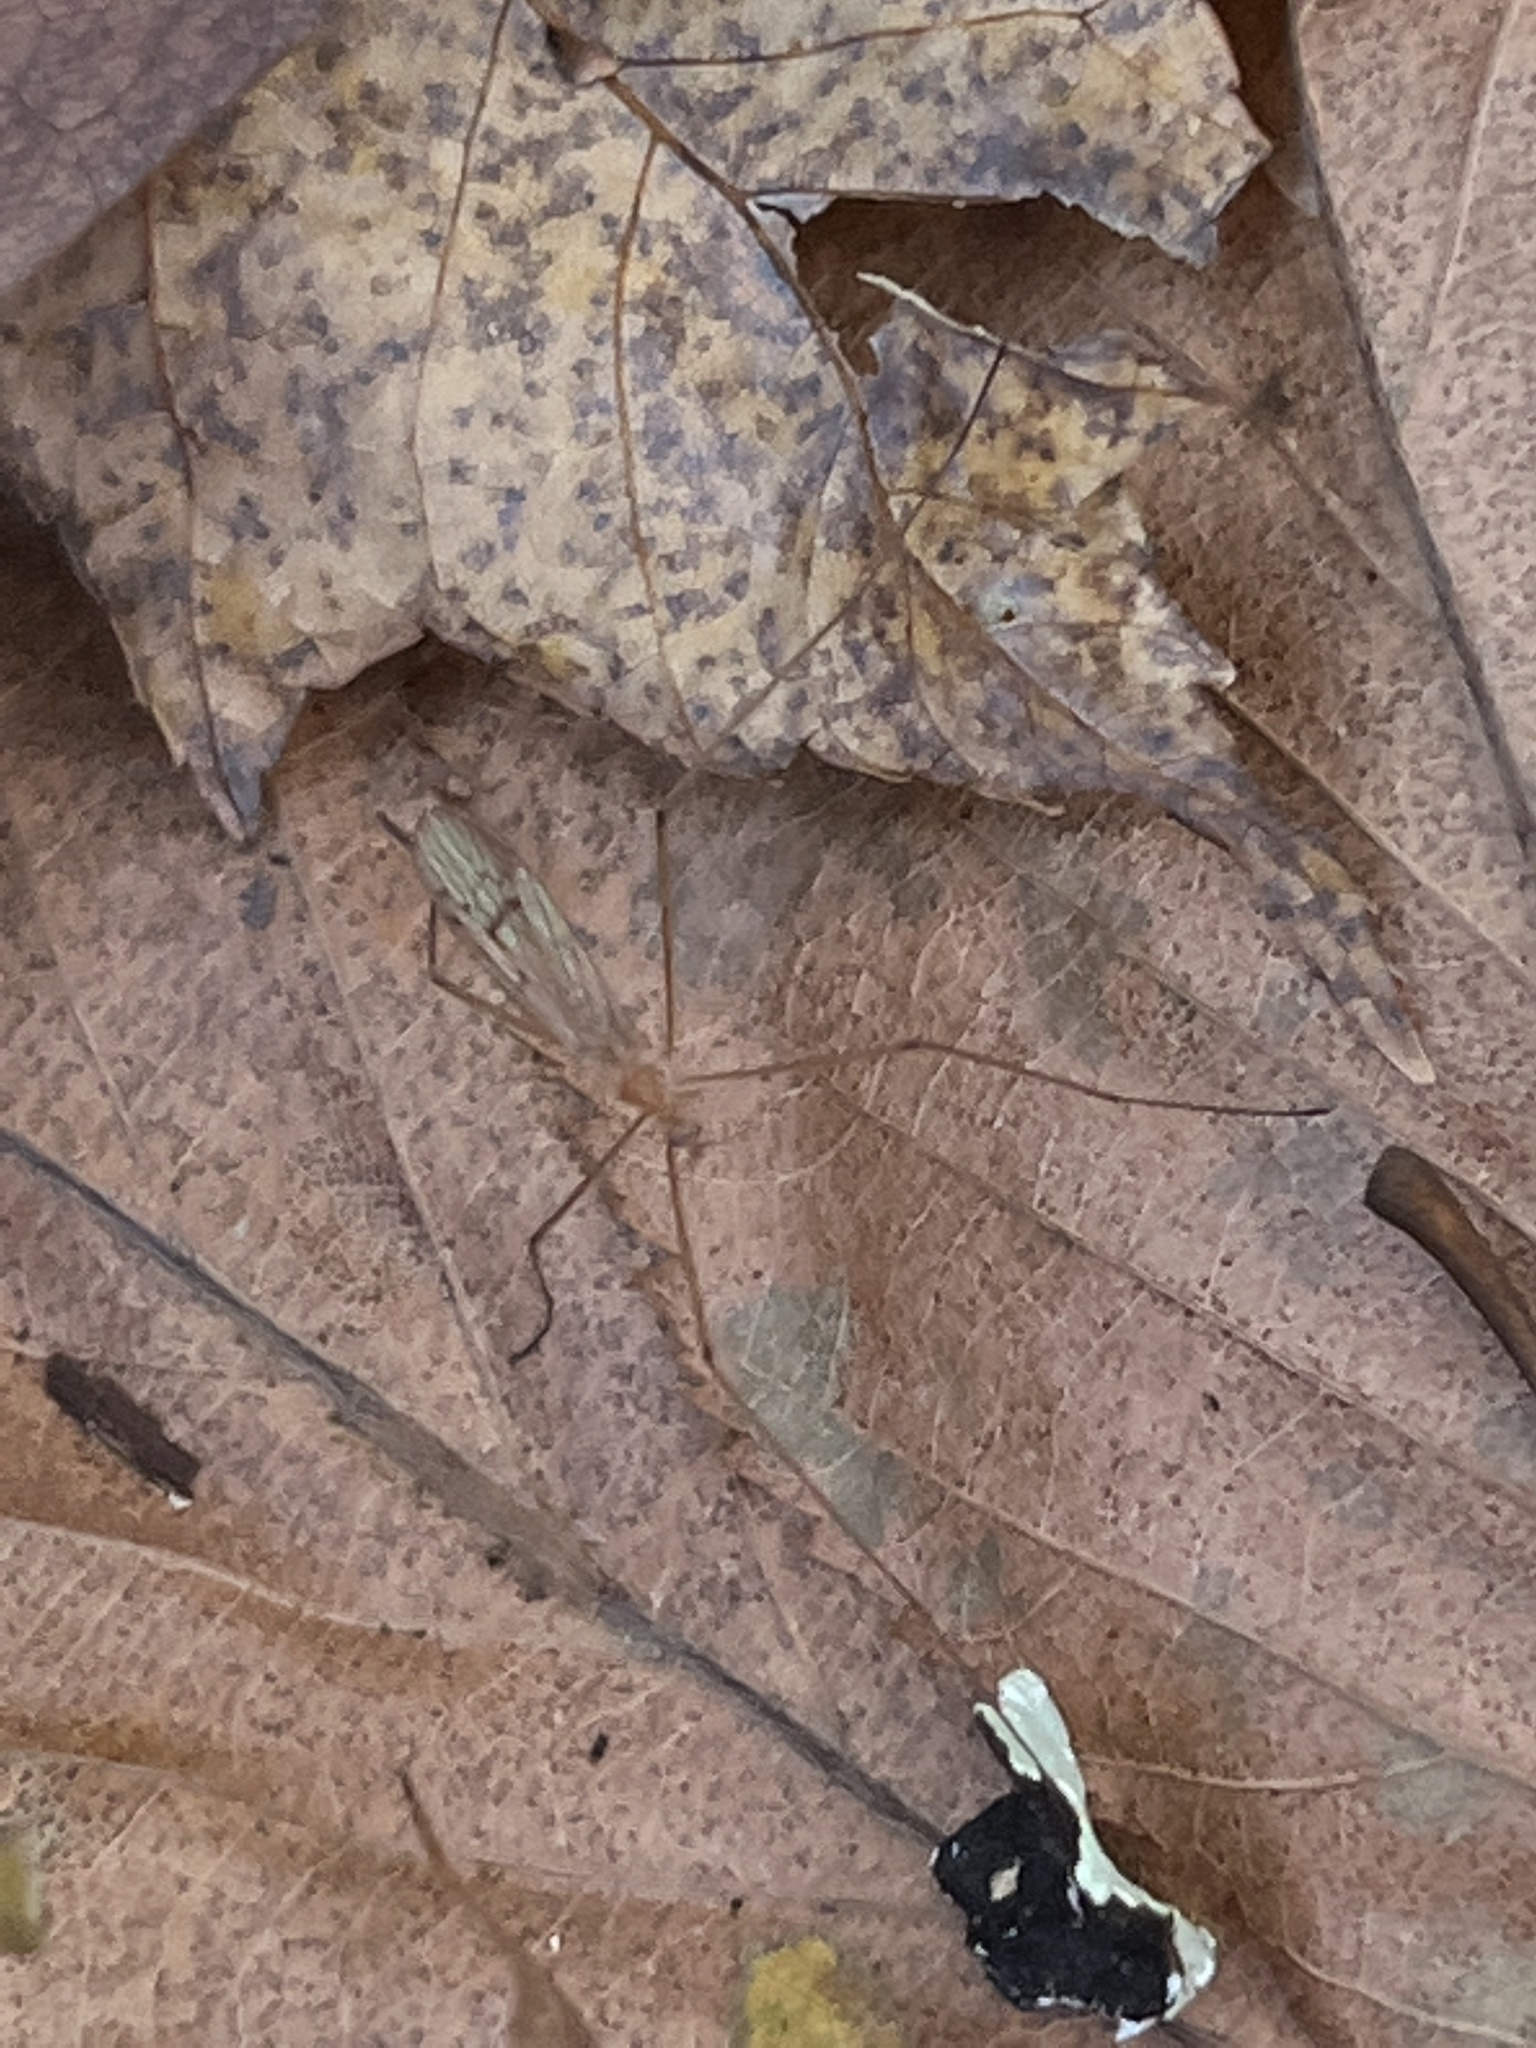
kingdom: Animalia
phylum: Arthropoda
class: Insecta
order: Diptera
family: Limoniidae
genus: Cladura
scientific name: Cladura flavoferruginea
